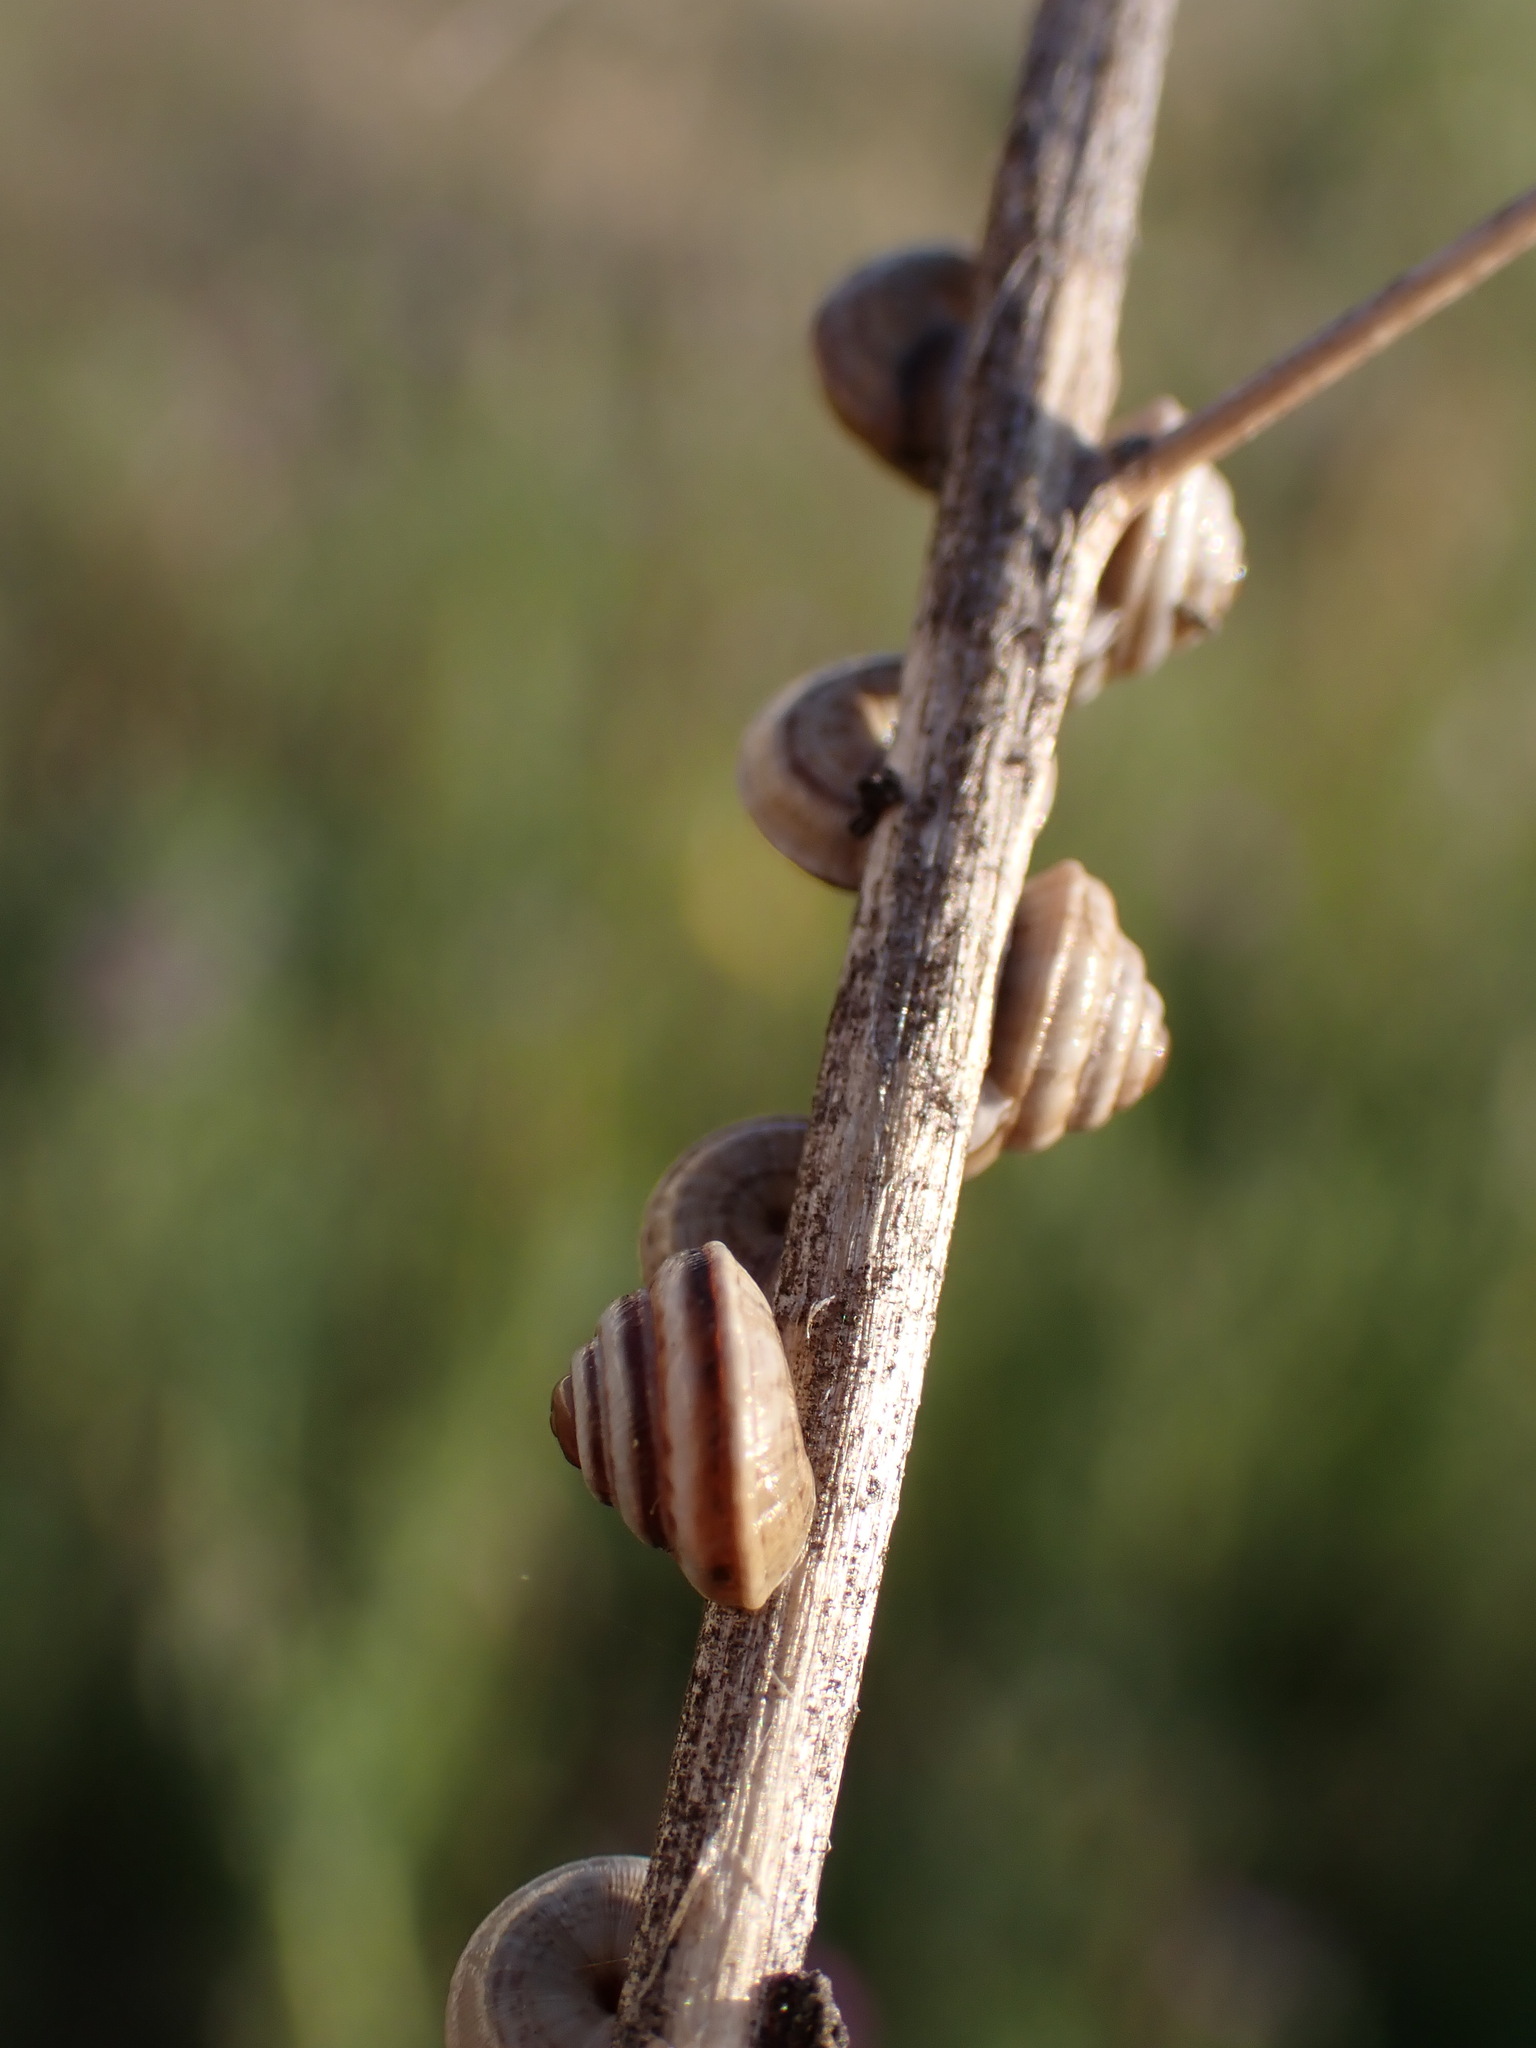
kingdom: Animalia
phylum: Mollusca
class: Gastropoda
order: Stylommatophora
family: Geomitridae
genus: Trochoidea
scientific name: Trochoidea trochoides
